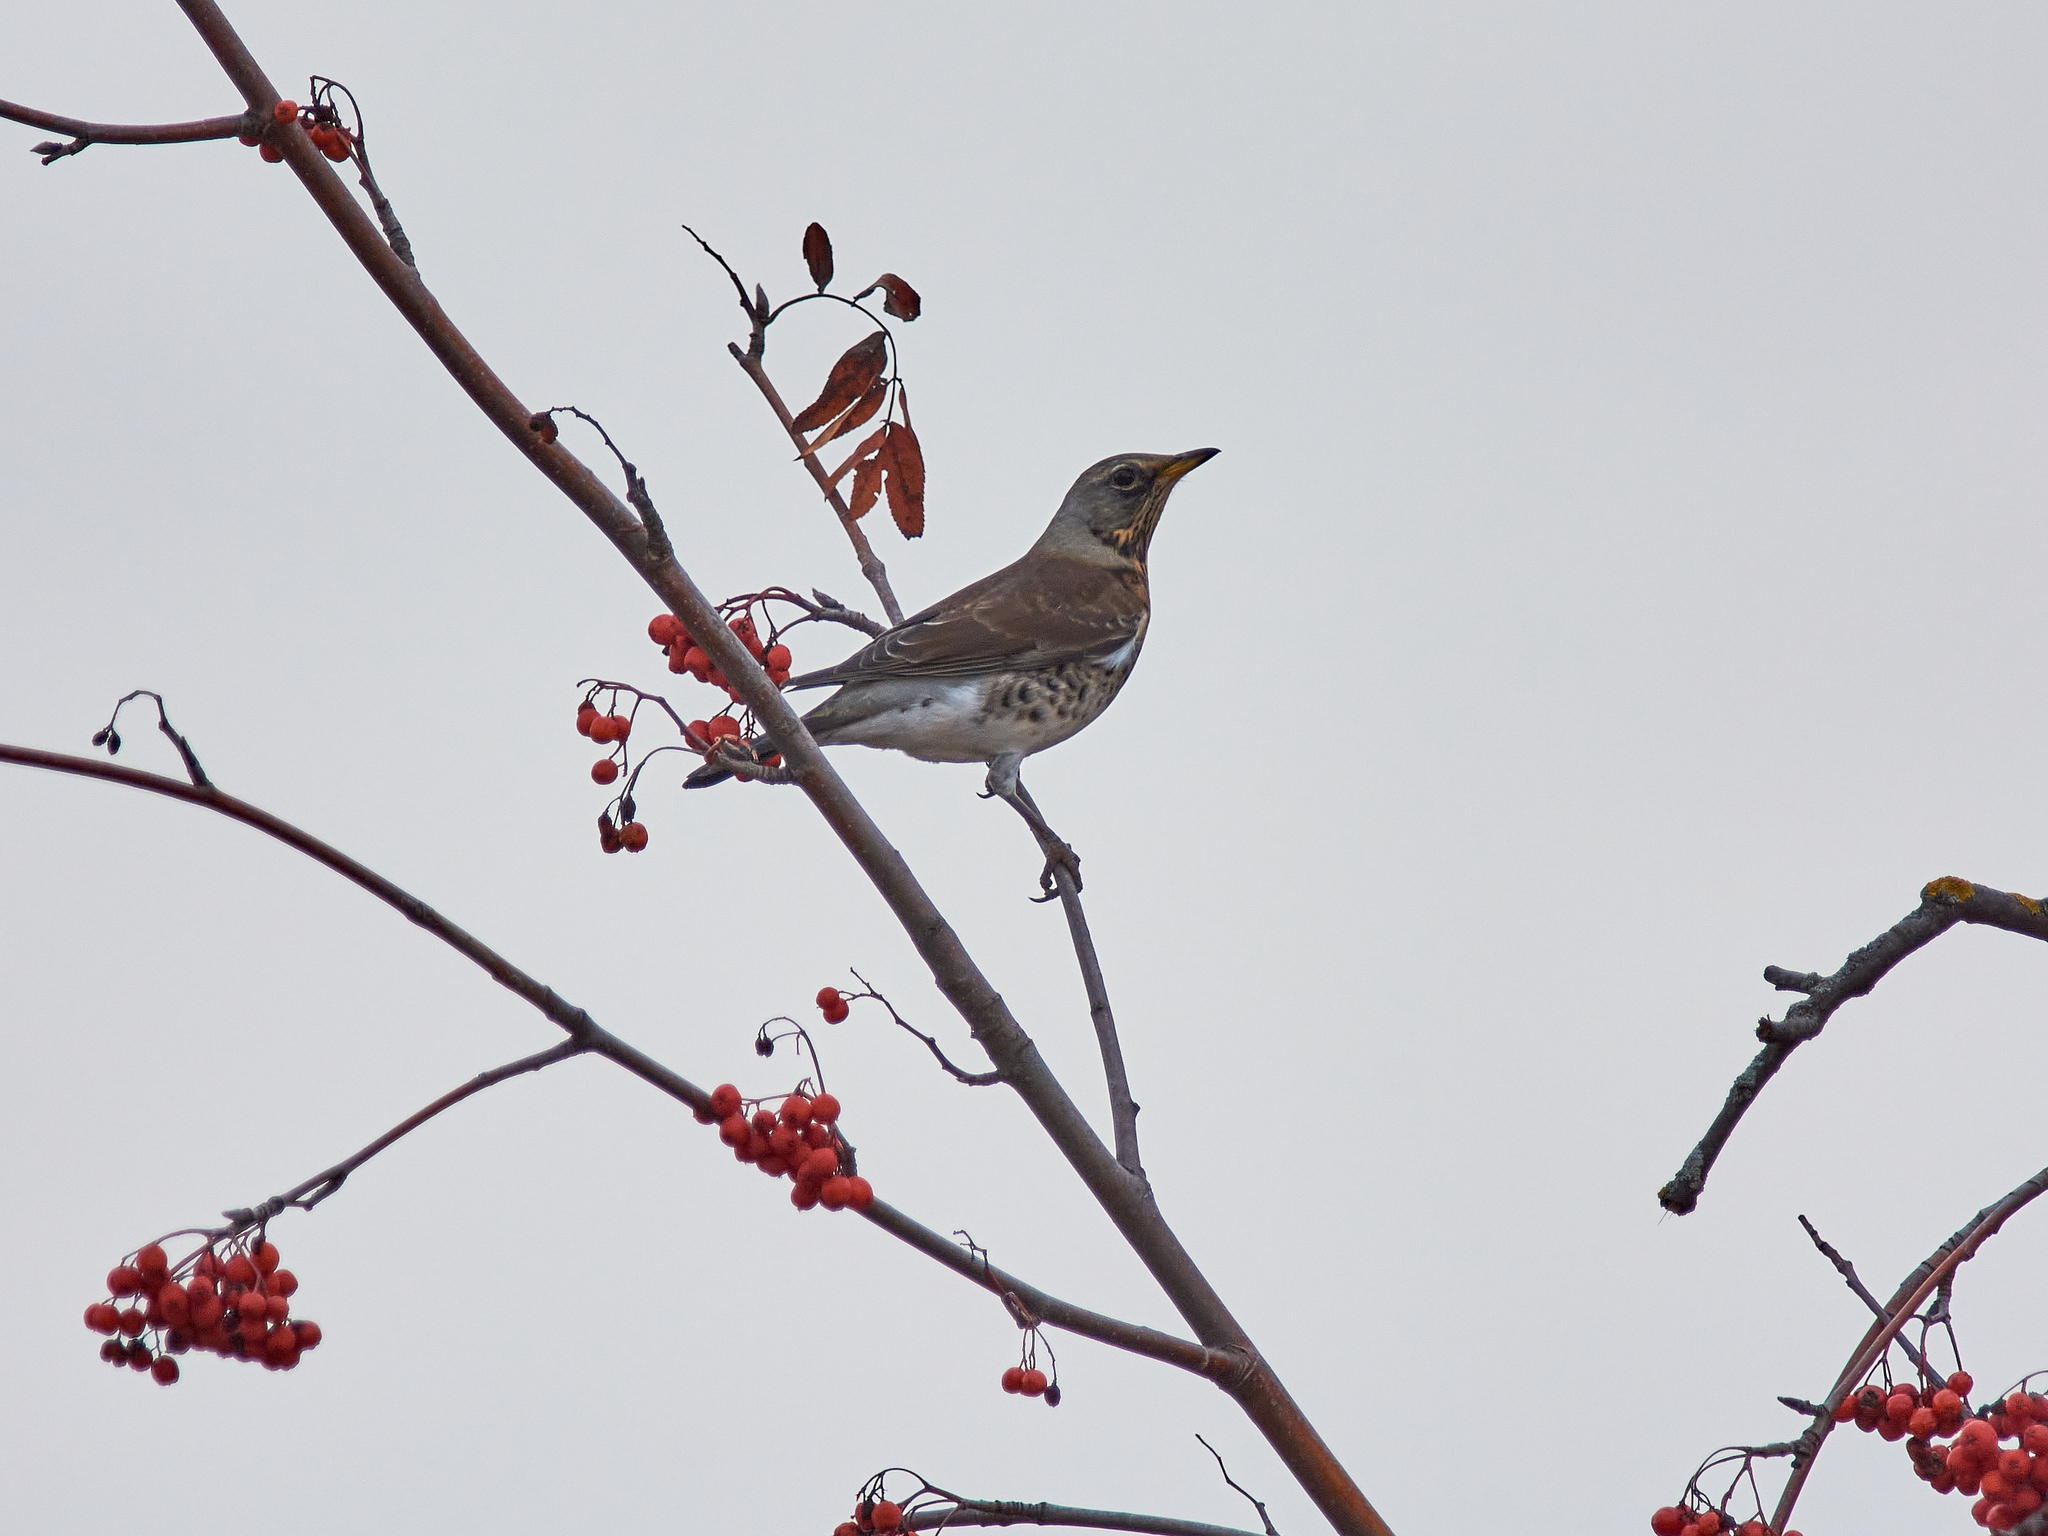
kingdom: Animalia
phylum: Chordata
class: Aves
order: Passeriformes
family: Turdidae
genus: Turdus
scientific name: Turdus pilaris
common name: Fieldfare
